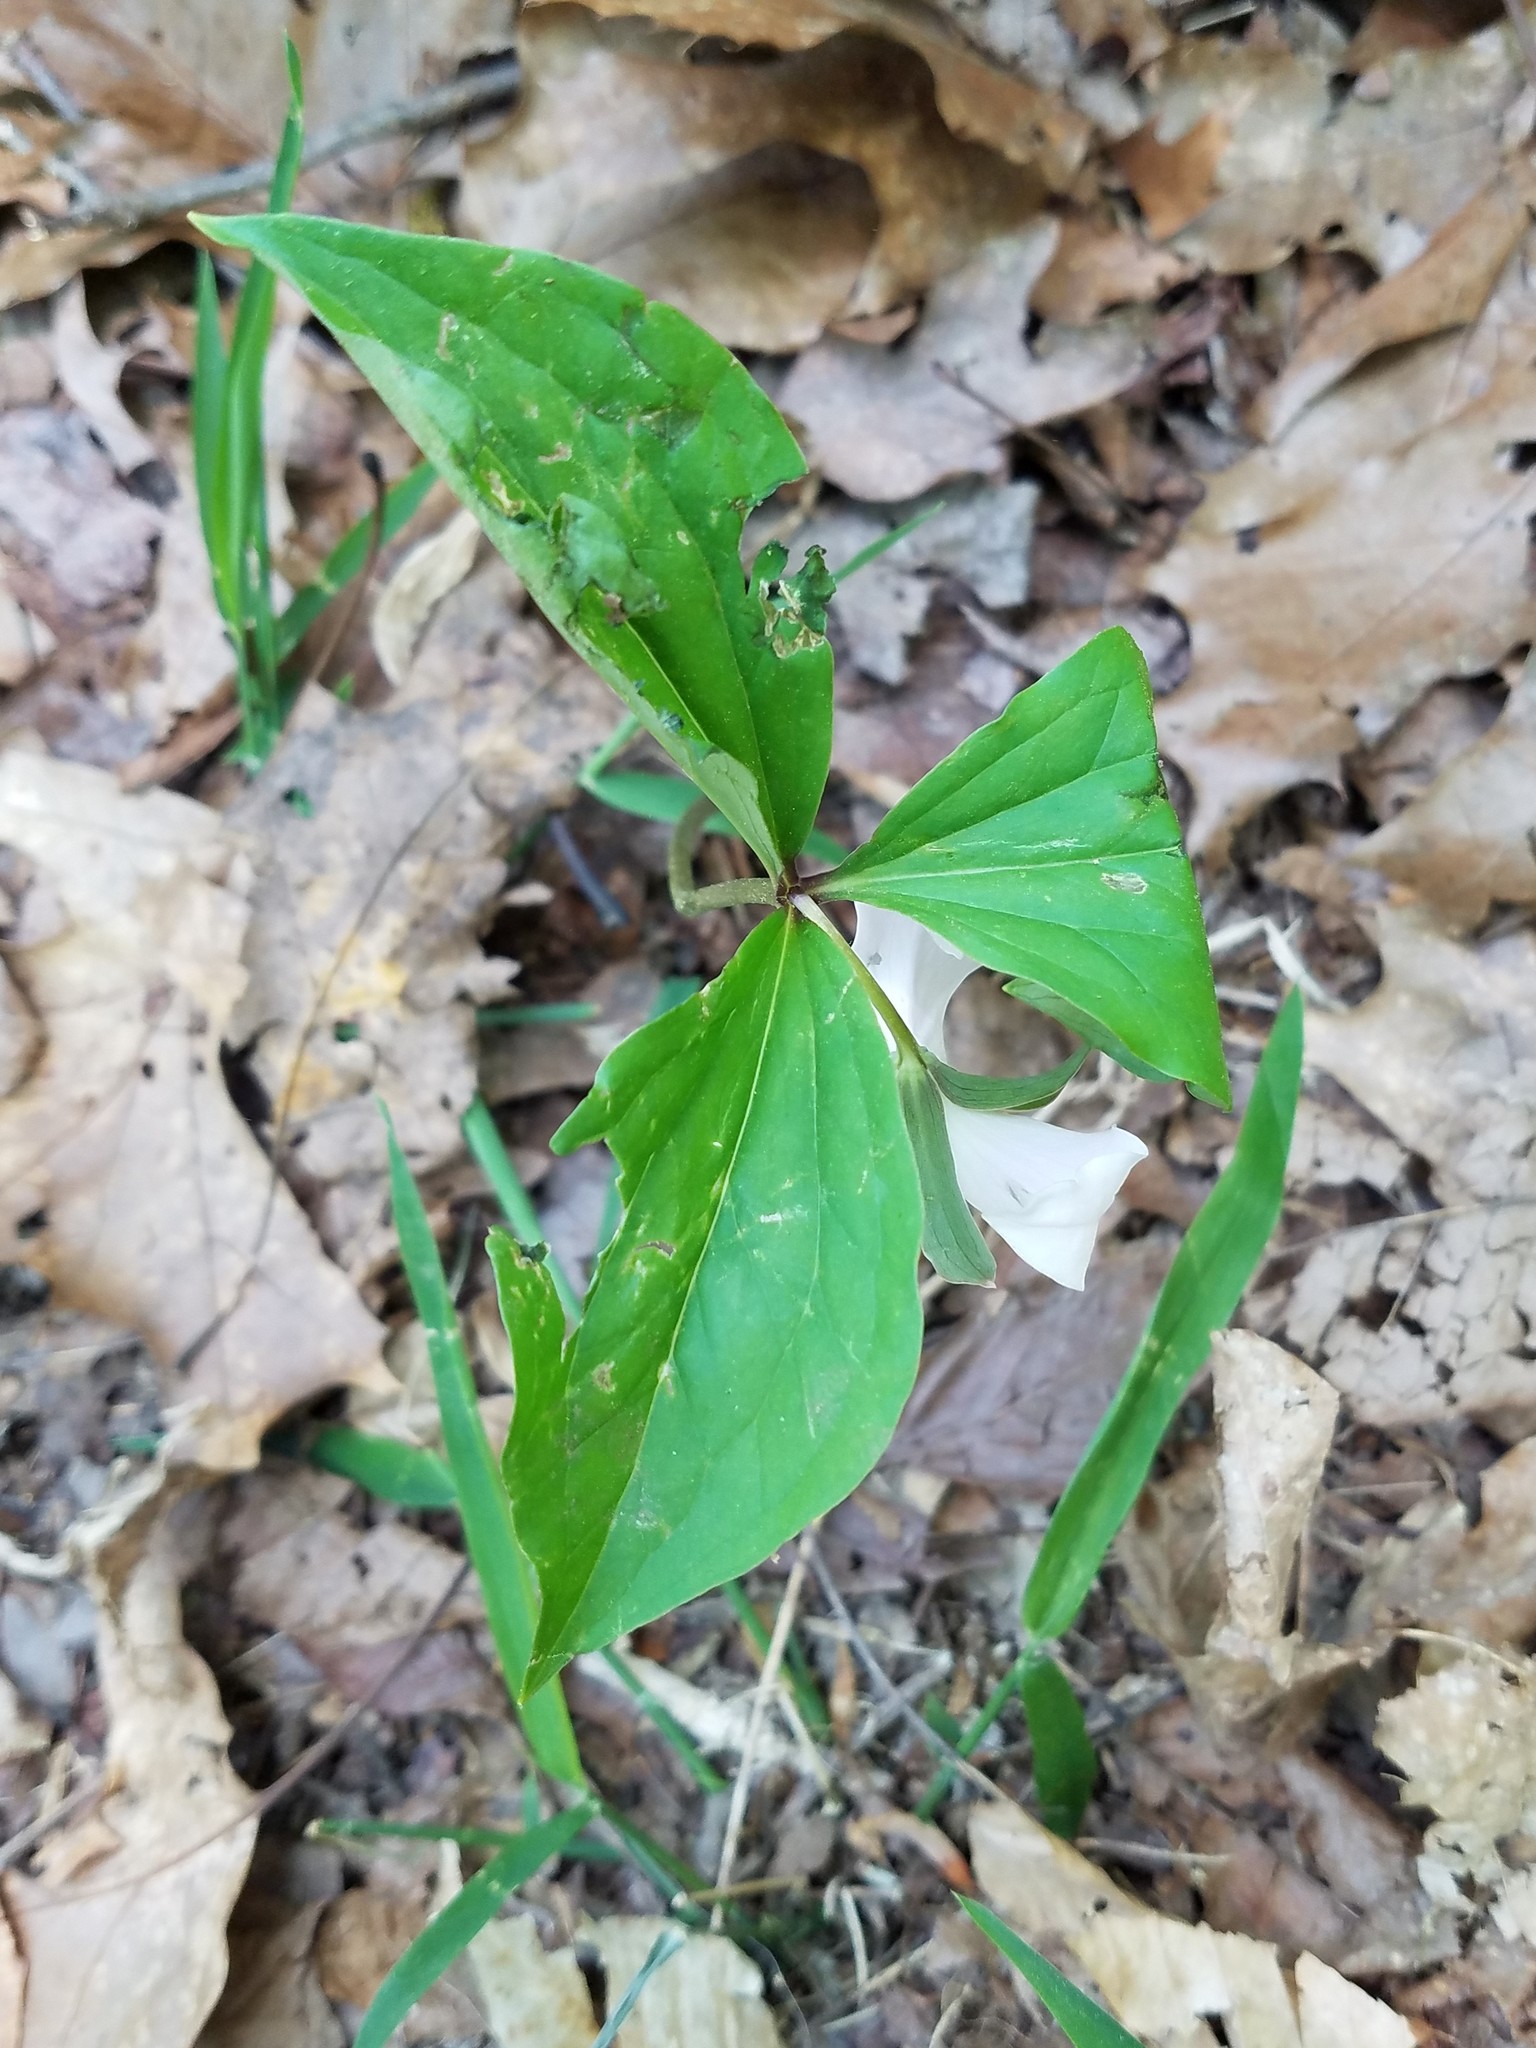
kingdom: Plantae
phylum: Tracheophyta
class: Liliopsida
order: Liliales
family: Melanthiaceae
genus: Trillium
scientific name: Trillium catesbaei
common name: Bashful trillium
